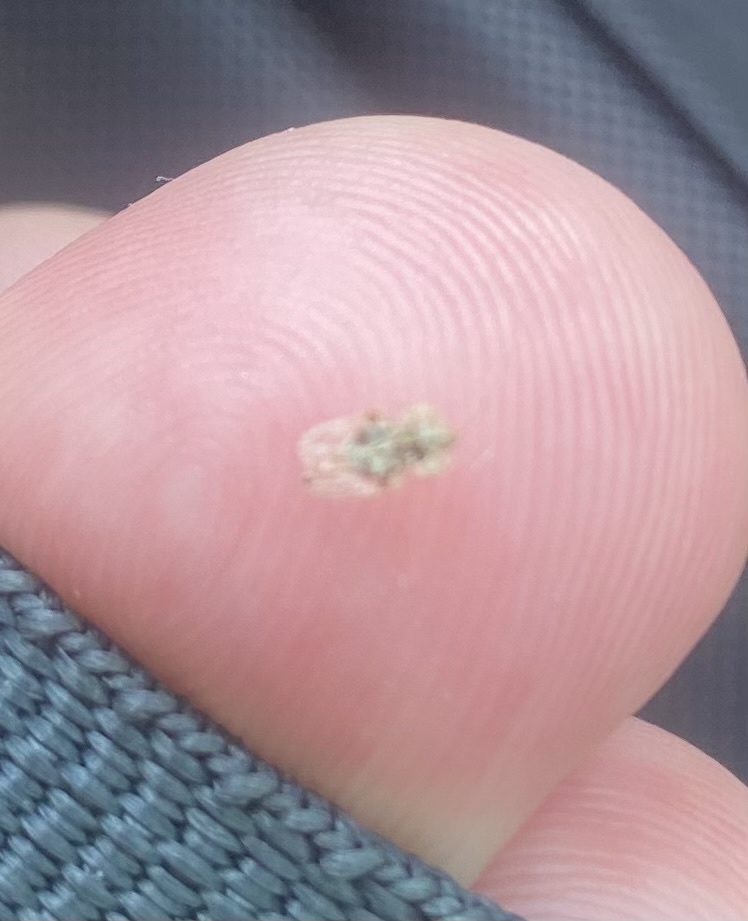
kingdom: Animalia
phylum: Arthropoda
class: Insecta
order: Hemiptera
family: Tingidae
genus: Corythucha
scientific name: Corythucha arcuata
